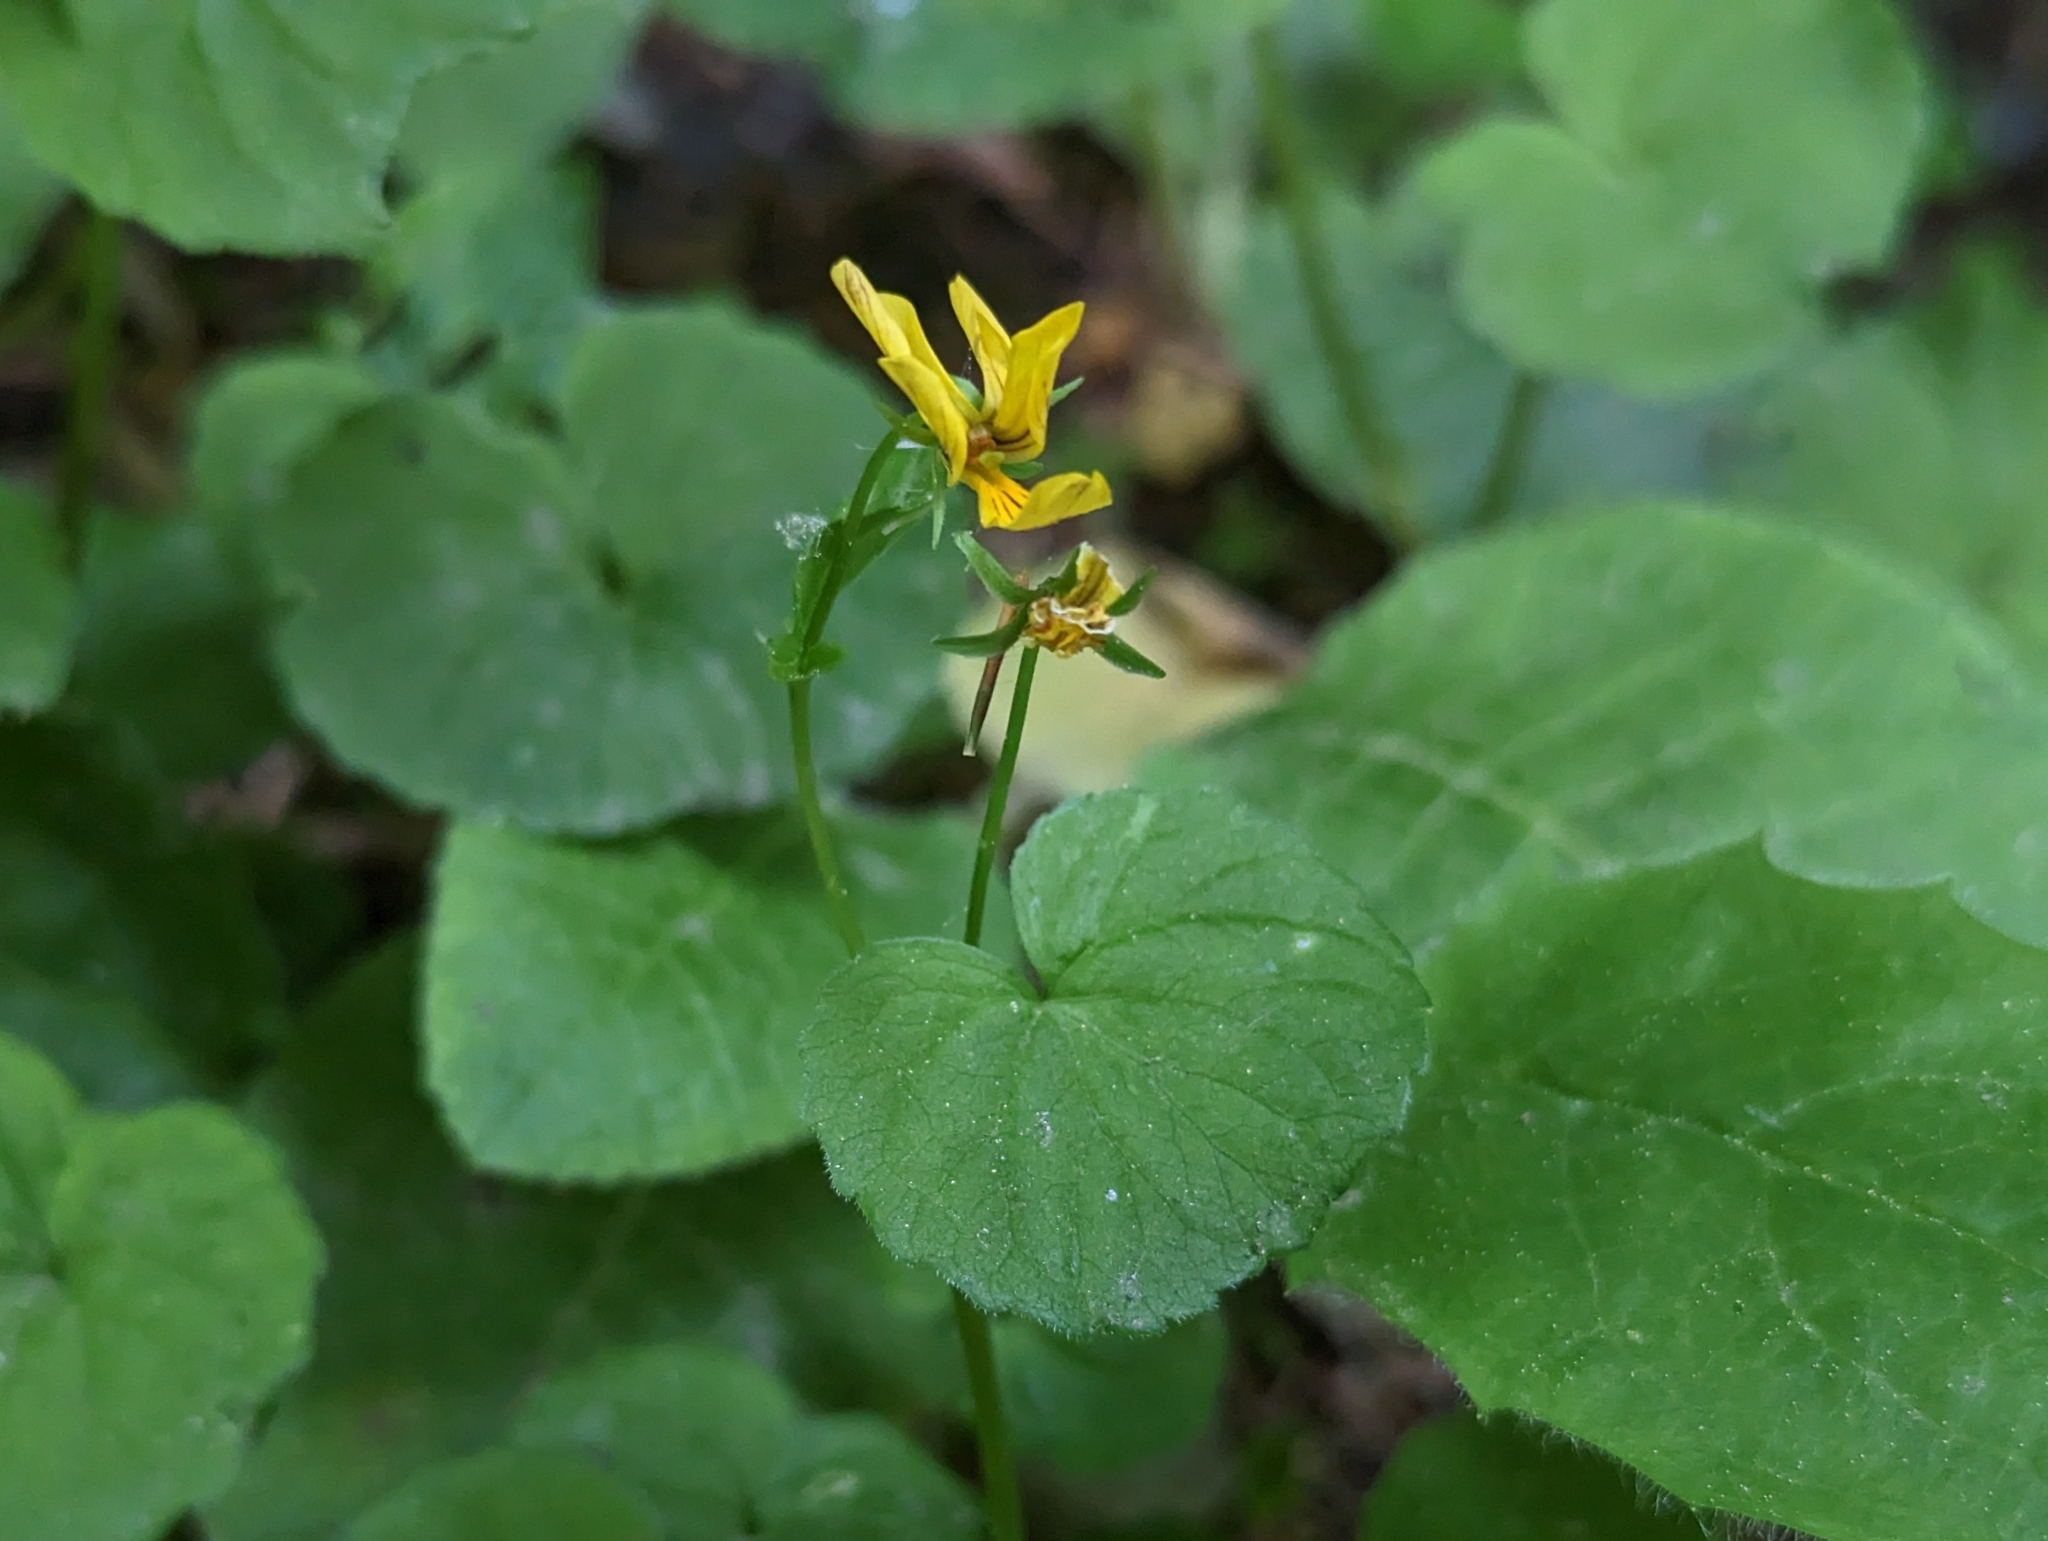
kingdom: Plantae
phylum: Tracheophyta
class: Magnoliopsida
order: Malpighiales
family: Violaceae
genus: Viola
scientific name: Viola biflora
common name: Alpine yellow violet
